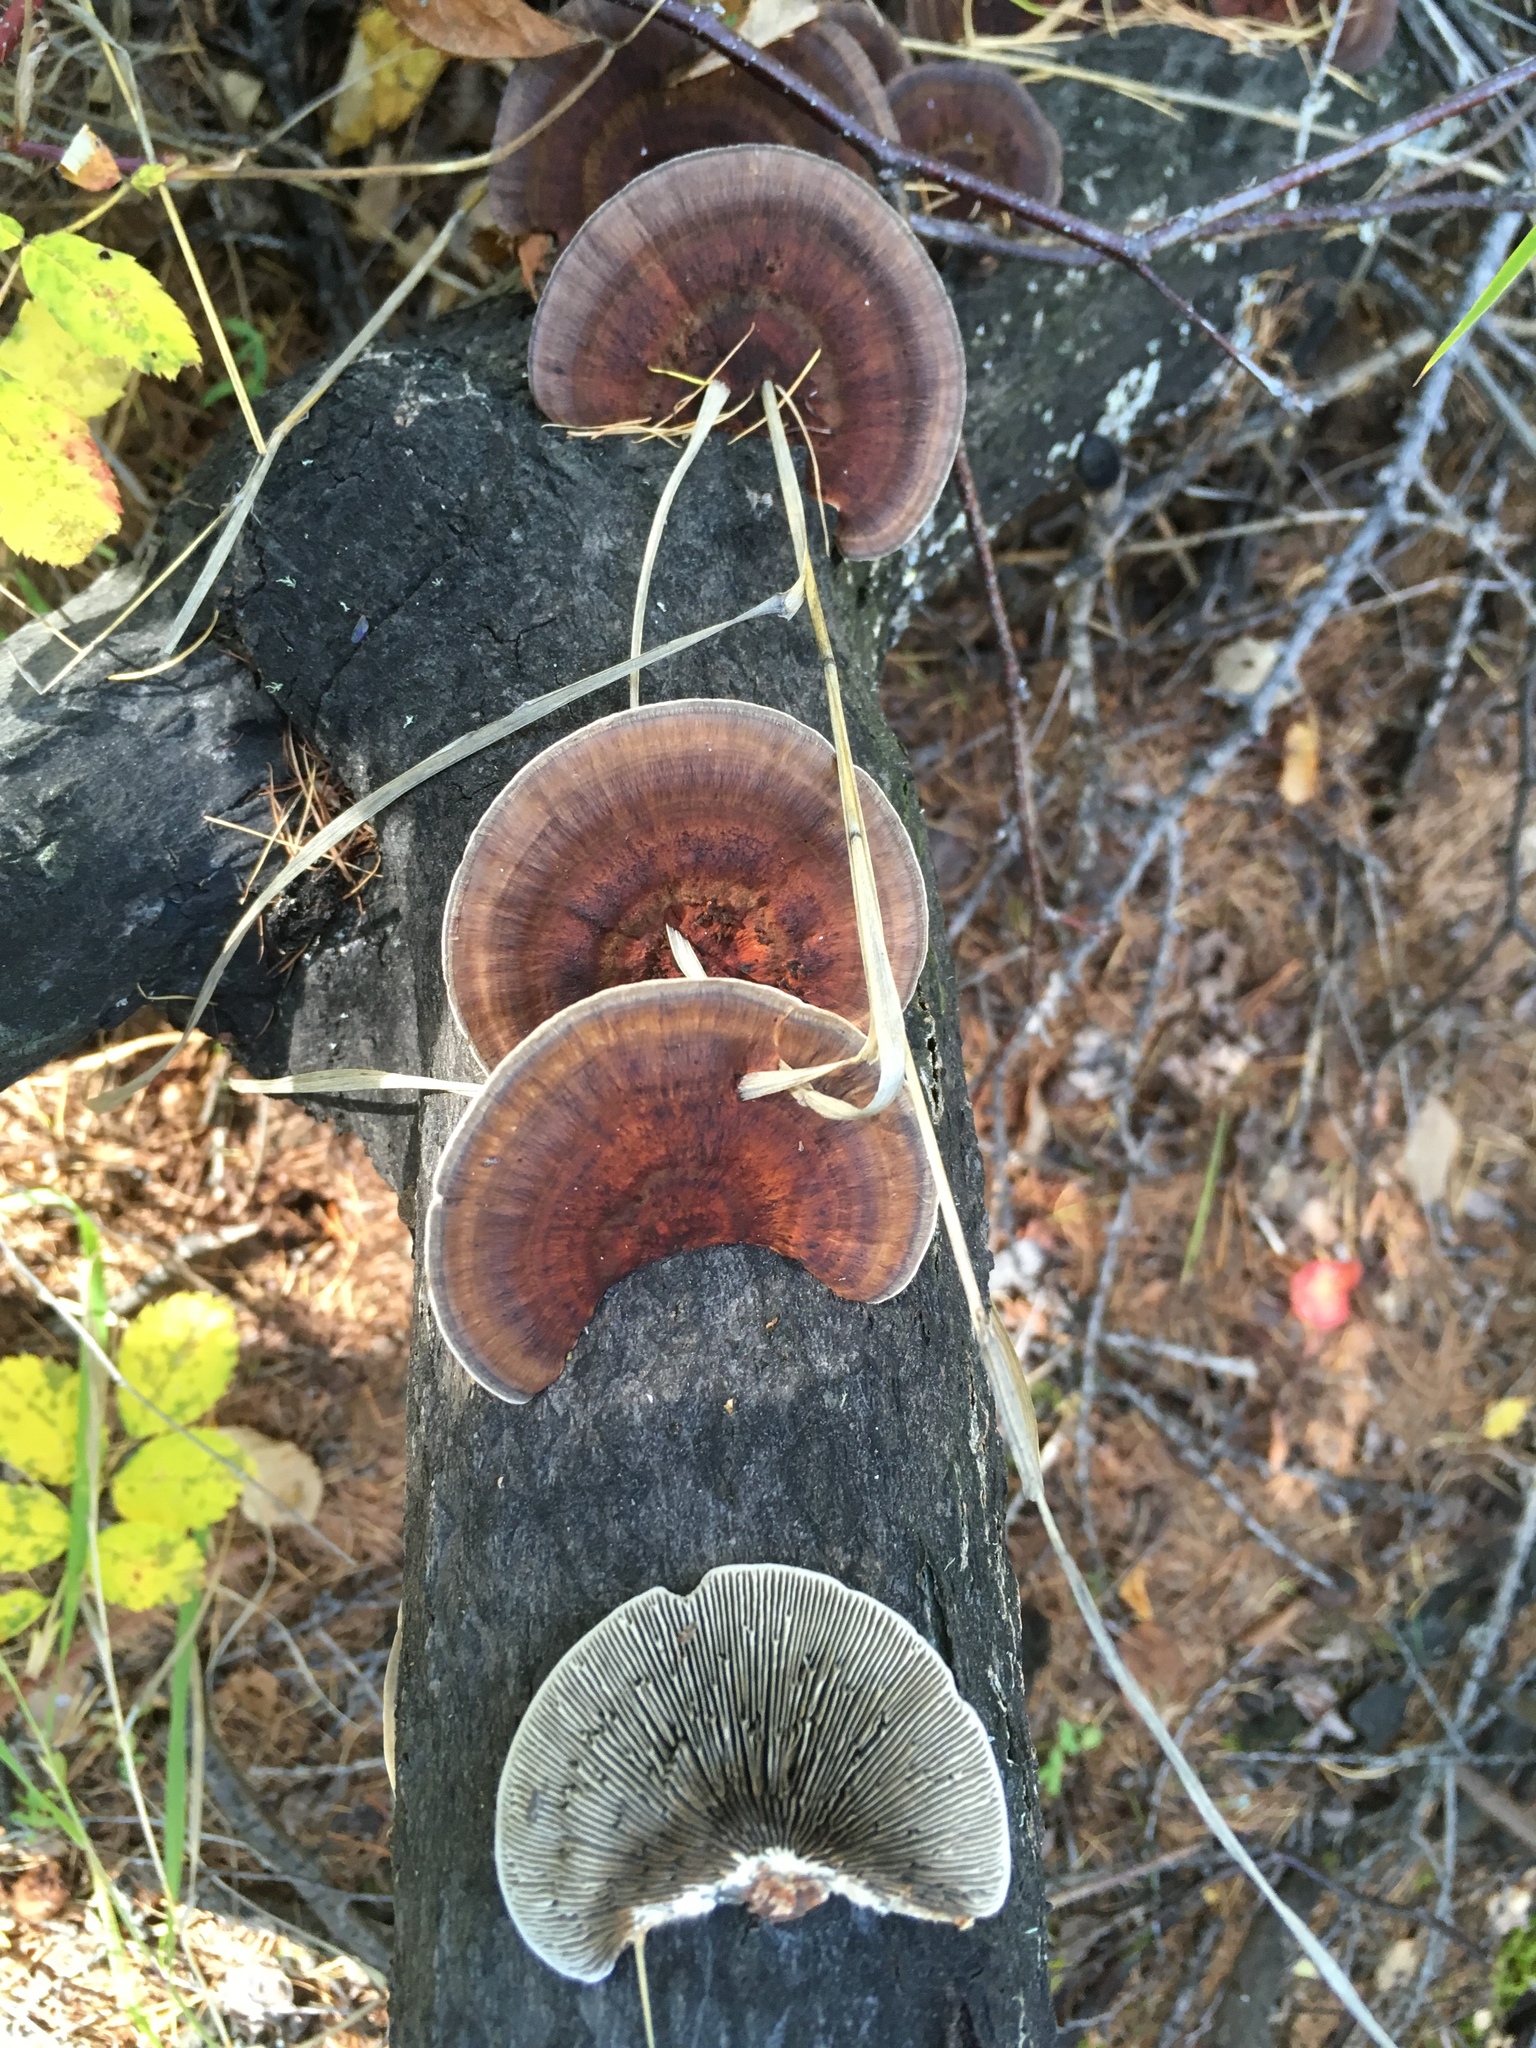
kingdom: Fungi
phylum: Basidiomycota
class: Agaricomycetes
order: Polyporales
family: Polyporaceae
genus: Daedaleopsis
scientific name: Daedaleopsis confragosa
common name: Blushing bracket
